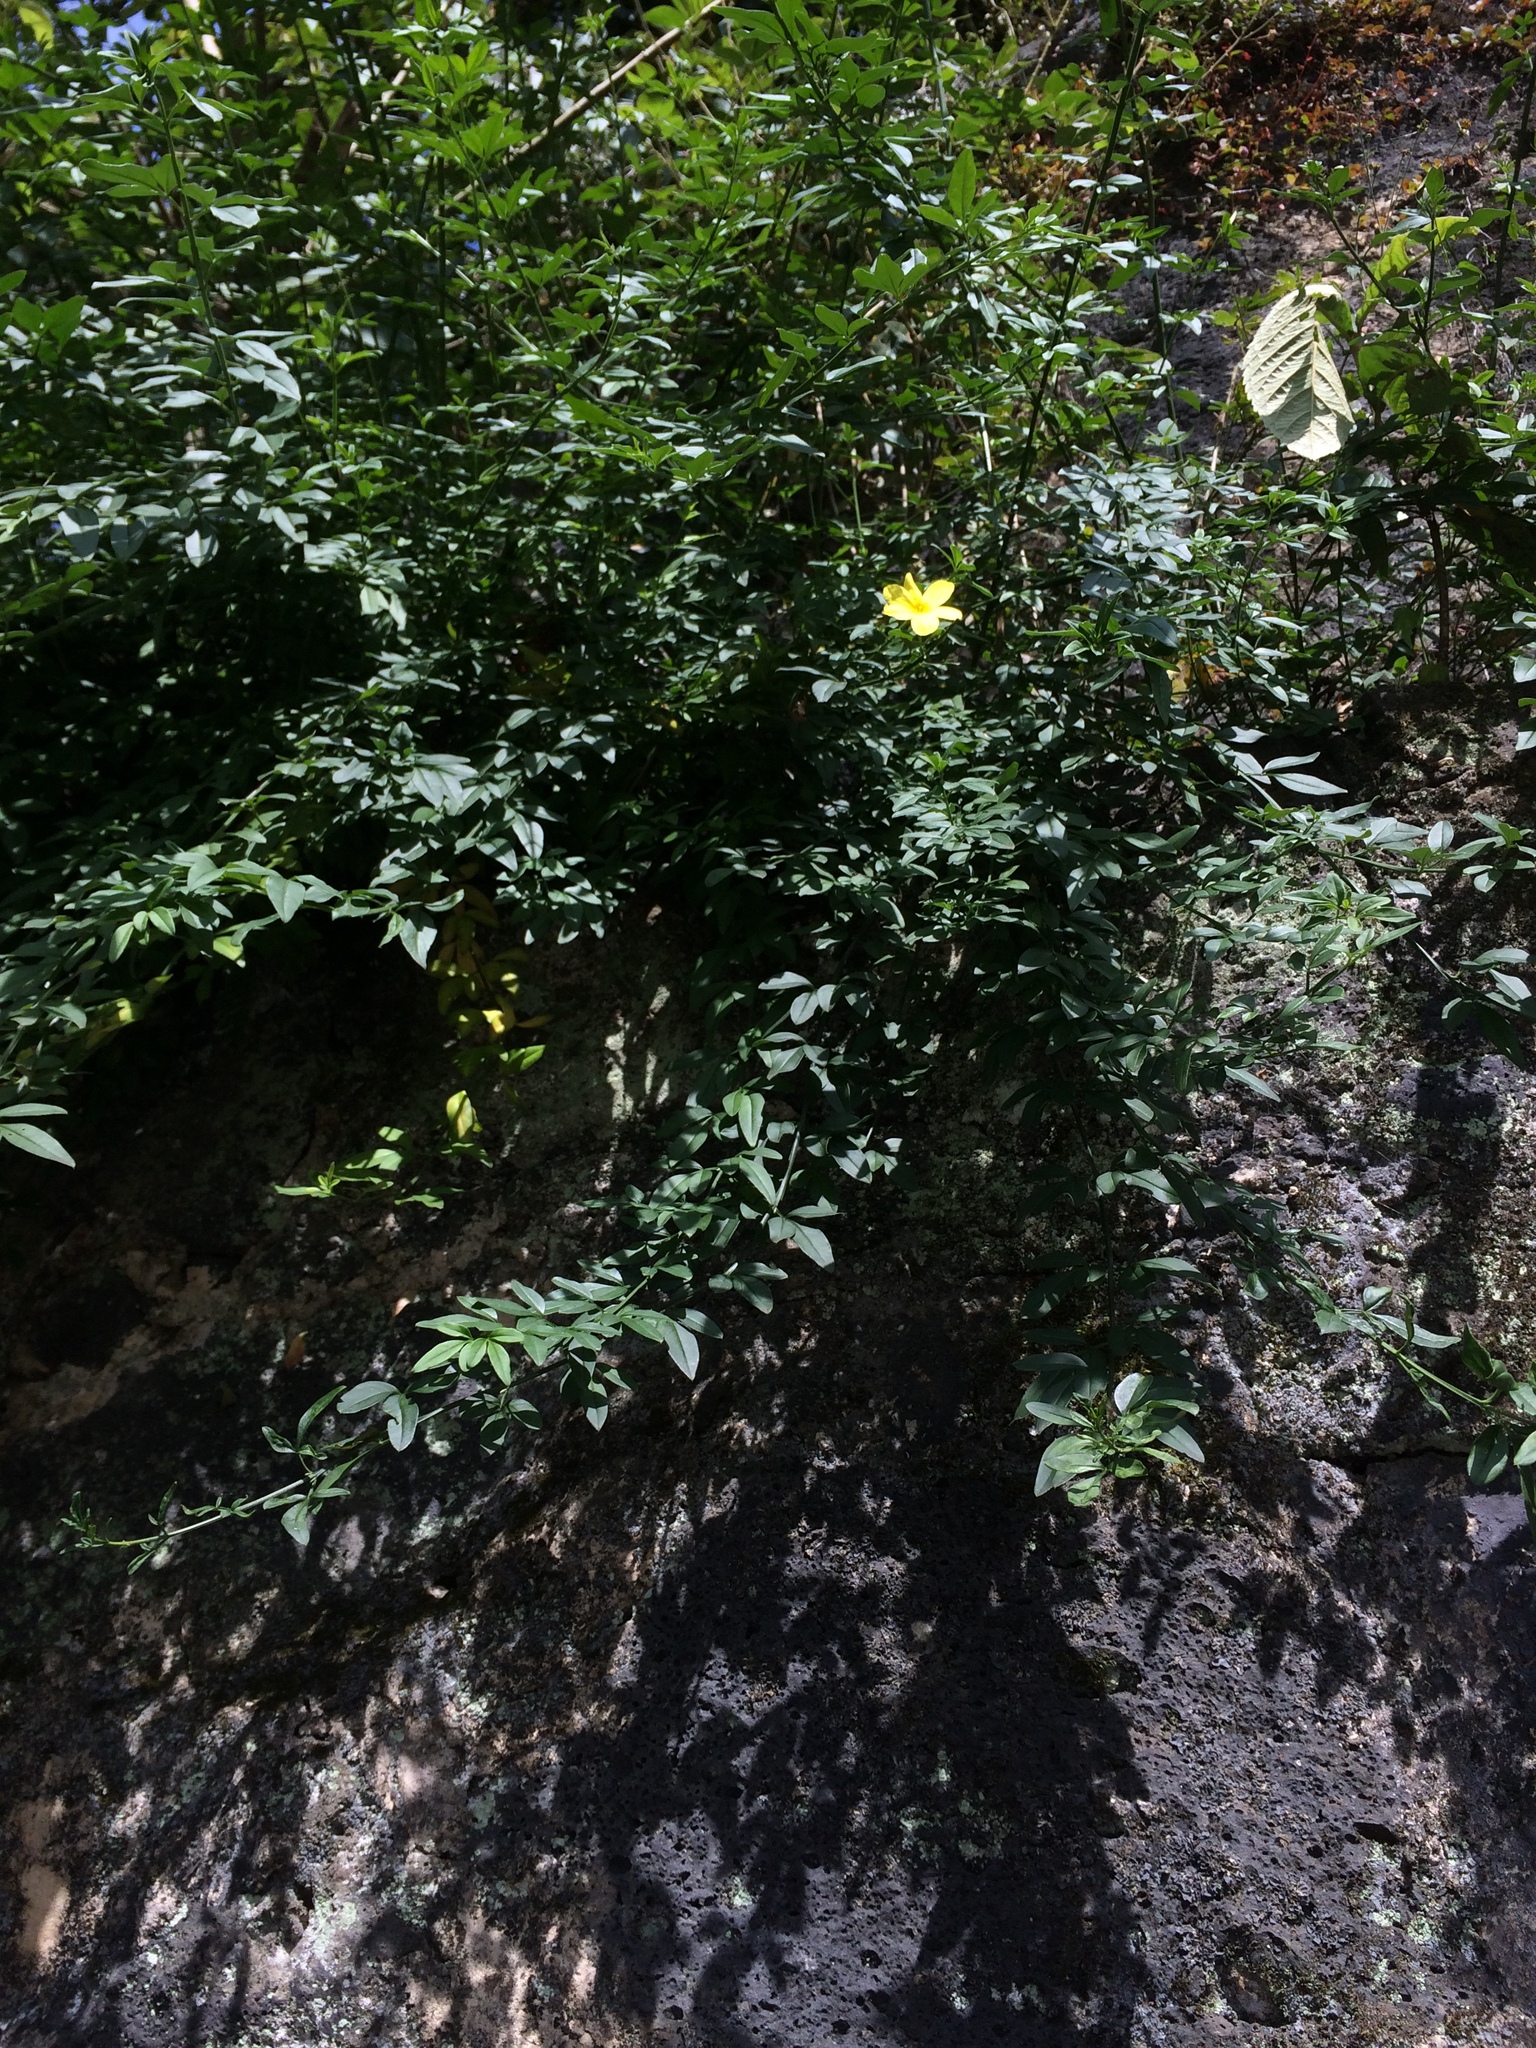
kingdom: Plantae
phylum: Tracheophyta
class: Magnoliopsida
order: Lamiales
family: Oleaceae
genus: Jasminum
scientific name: Jasminum mesnyi
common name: Japanese jasmine
